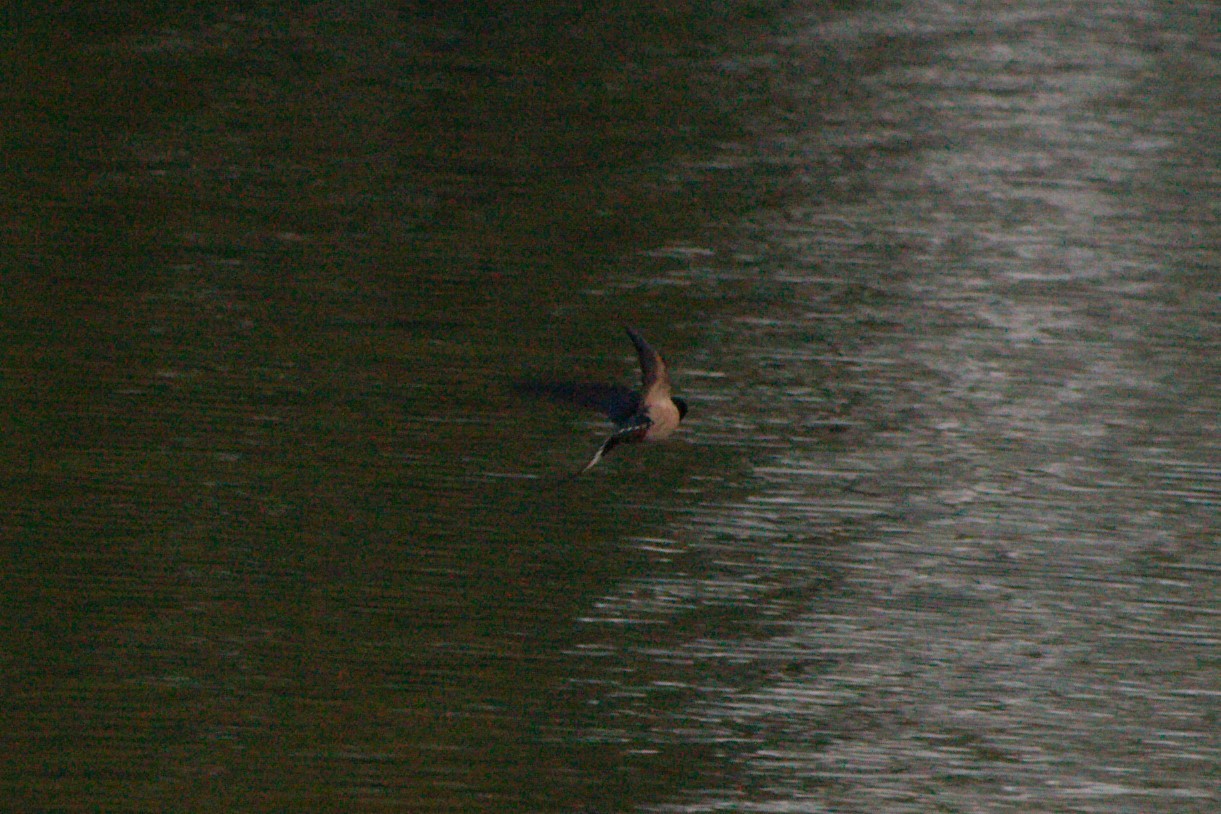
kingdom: Animalia
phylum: Chordata
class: Aves
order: Passeriformes
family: Hirundinidae
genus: Hirundo
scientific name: Hirundo rustica
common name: Barn swallow
